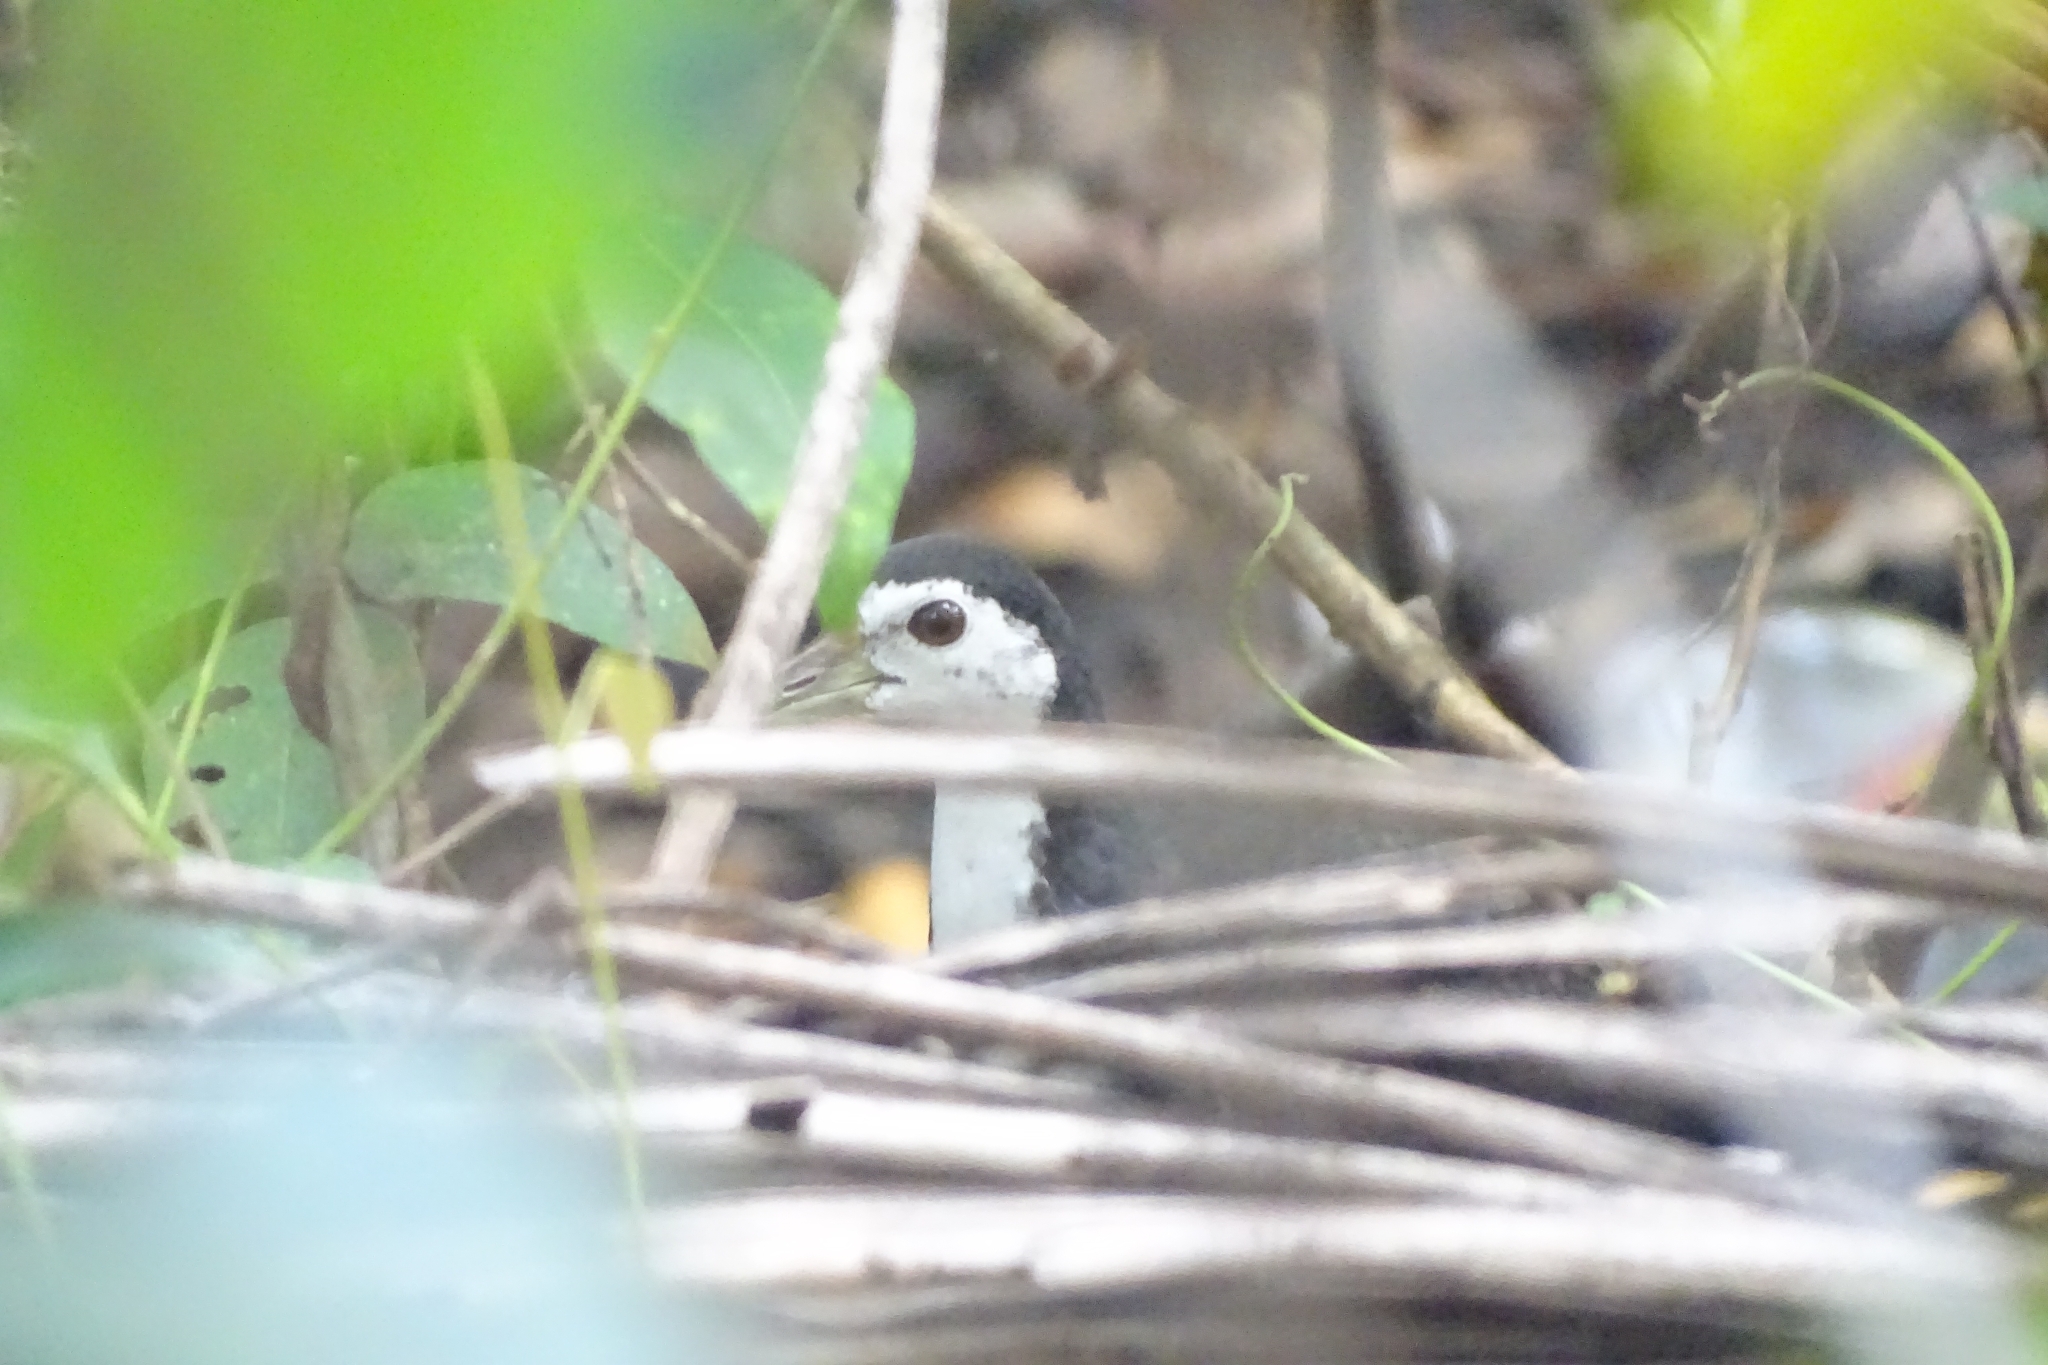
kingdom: Animalia
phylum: Chordata
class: Aves
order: Gruiformes
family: Rallidae
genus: Amaurornis
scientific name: Amaurornis phoenicurus
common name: White-breasted waterhen
